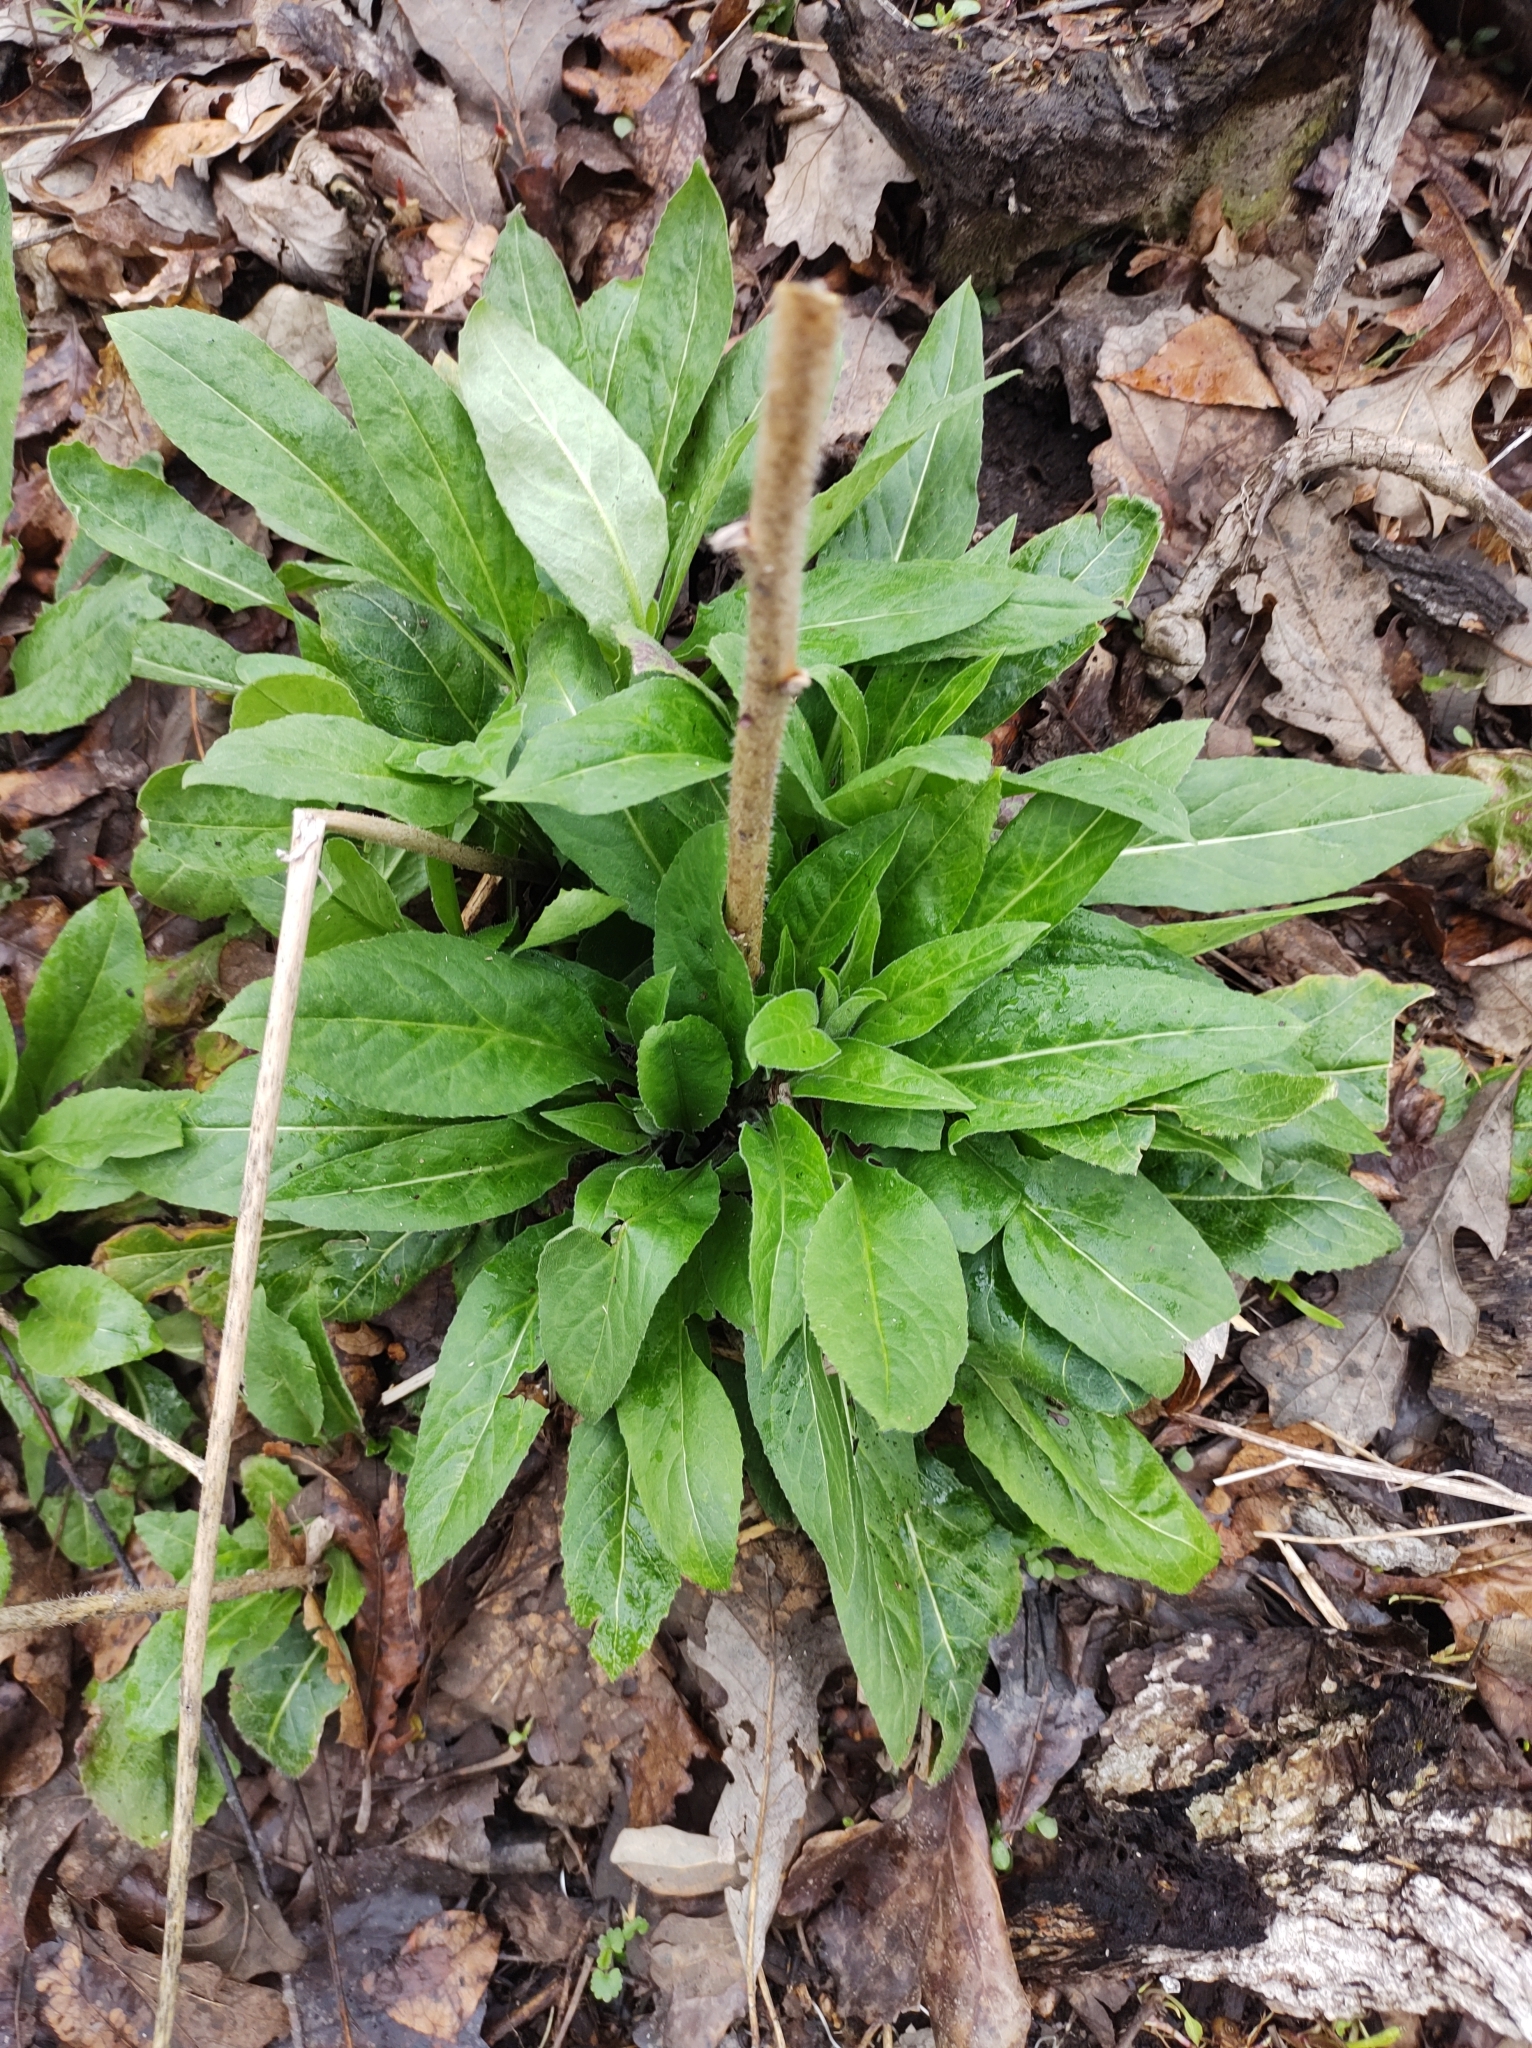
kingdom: Plantae
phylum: Tracheophyta
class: Magnoliopsida
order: Brassicales
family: Brassicaceae
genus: Hesperis
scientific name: Hesperis matronalis
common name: Dame's-violet
